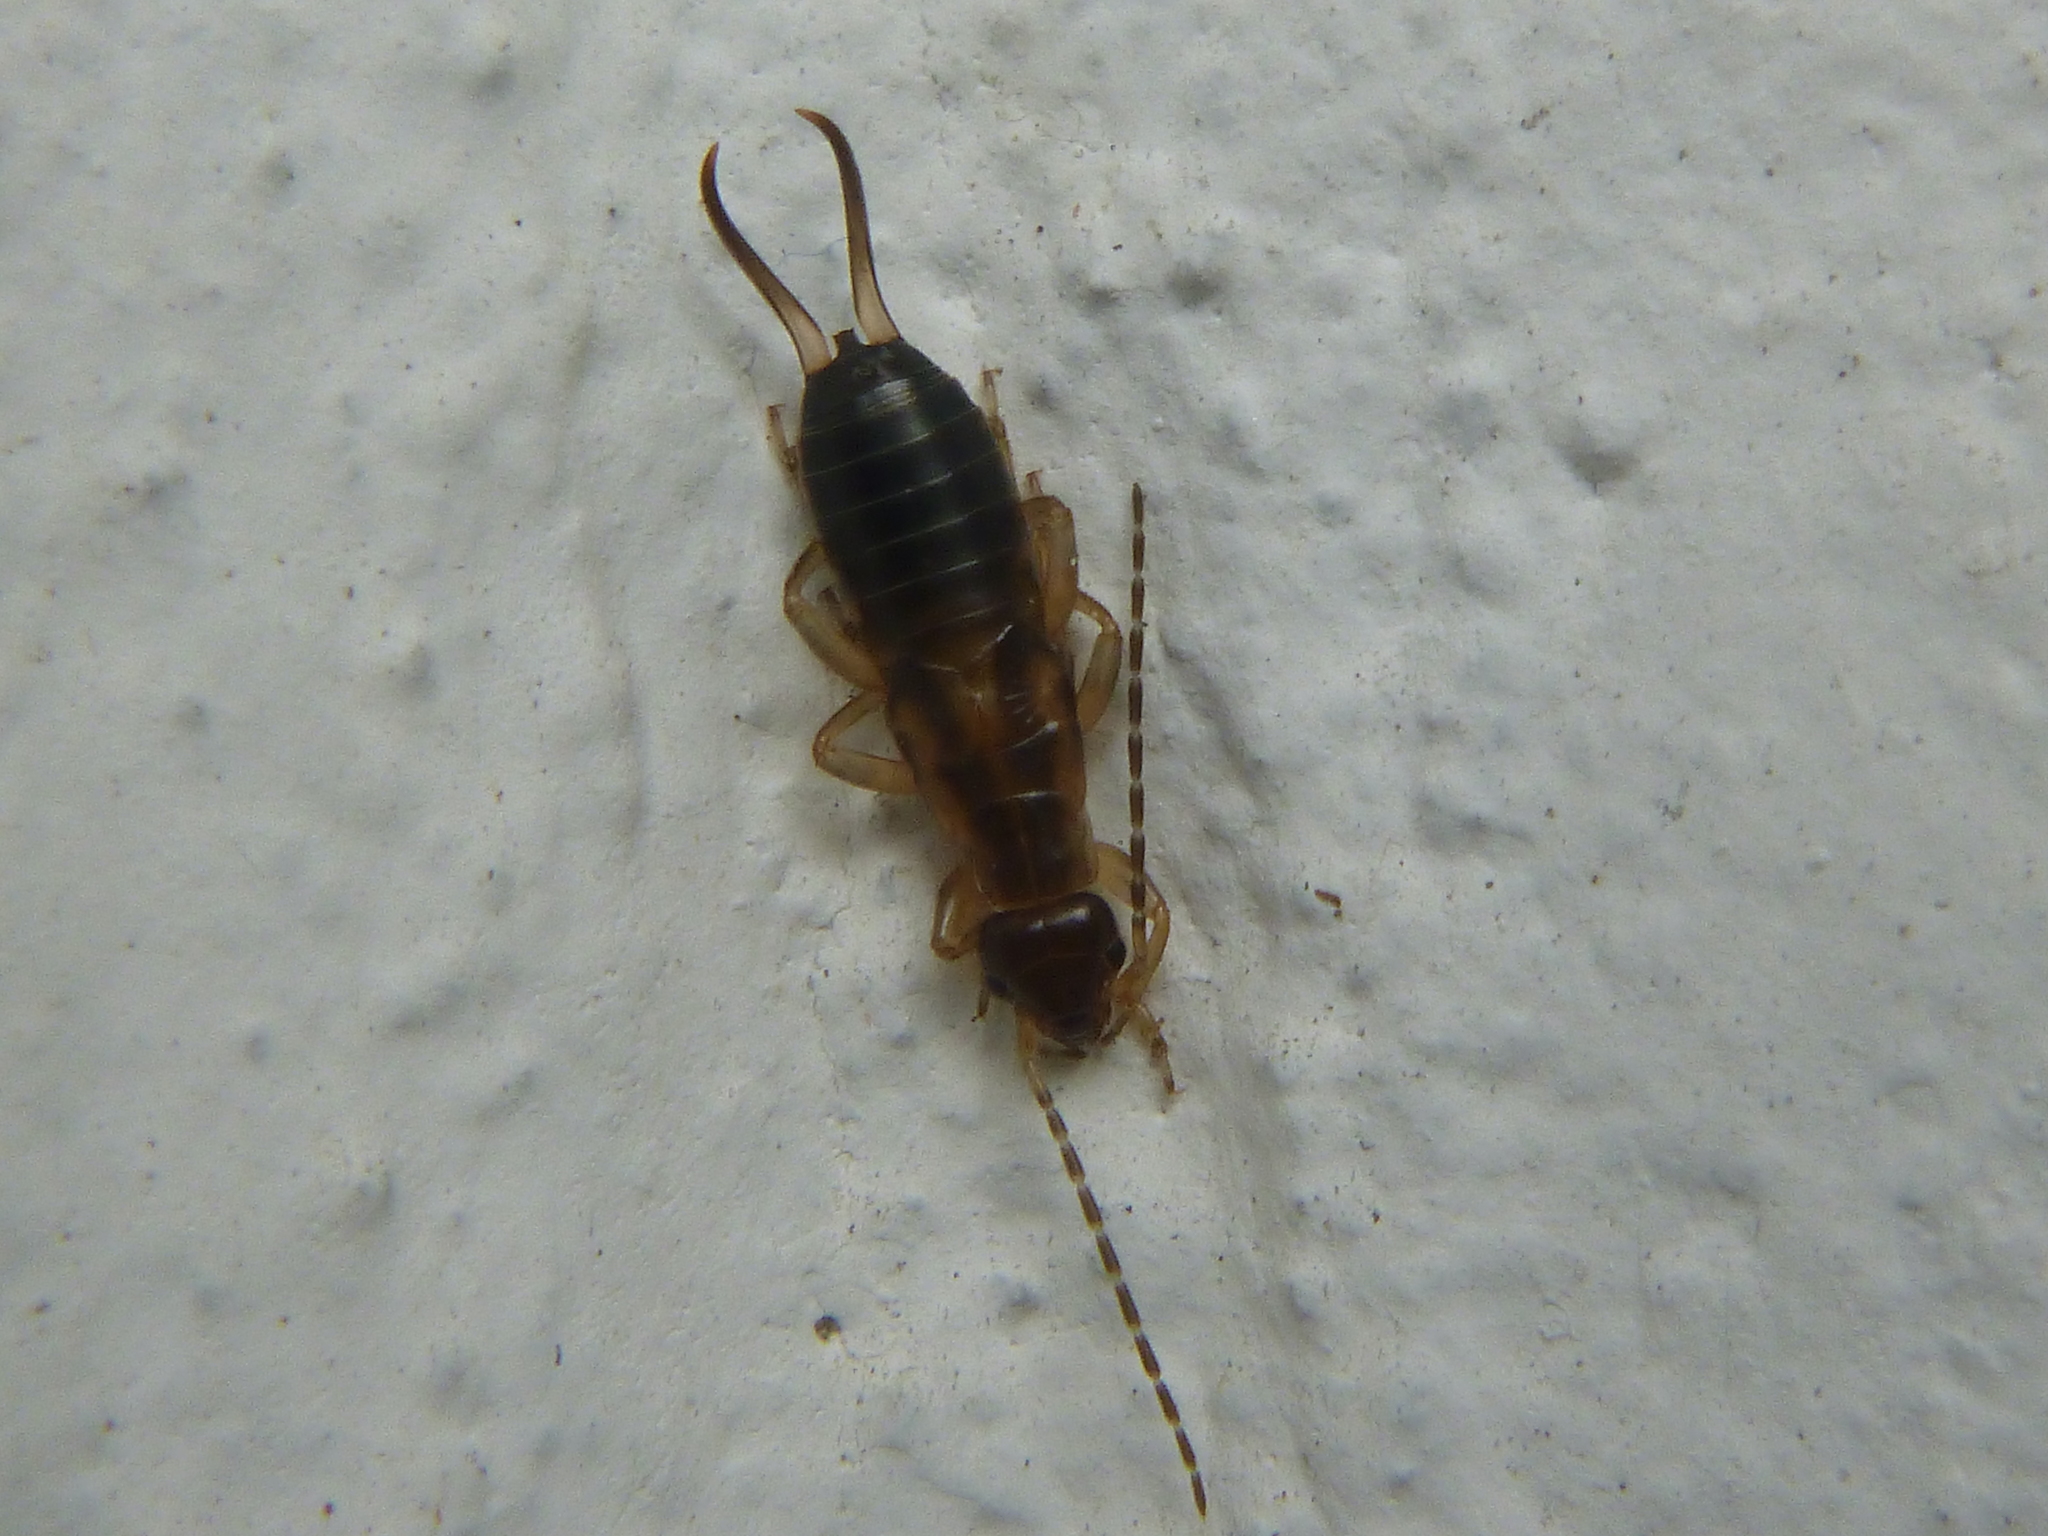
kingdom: Animalia
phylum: Arthropoda
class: Insecta
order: Dermaptera
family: Forficulidae
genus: Forficula
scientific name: Forficula
